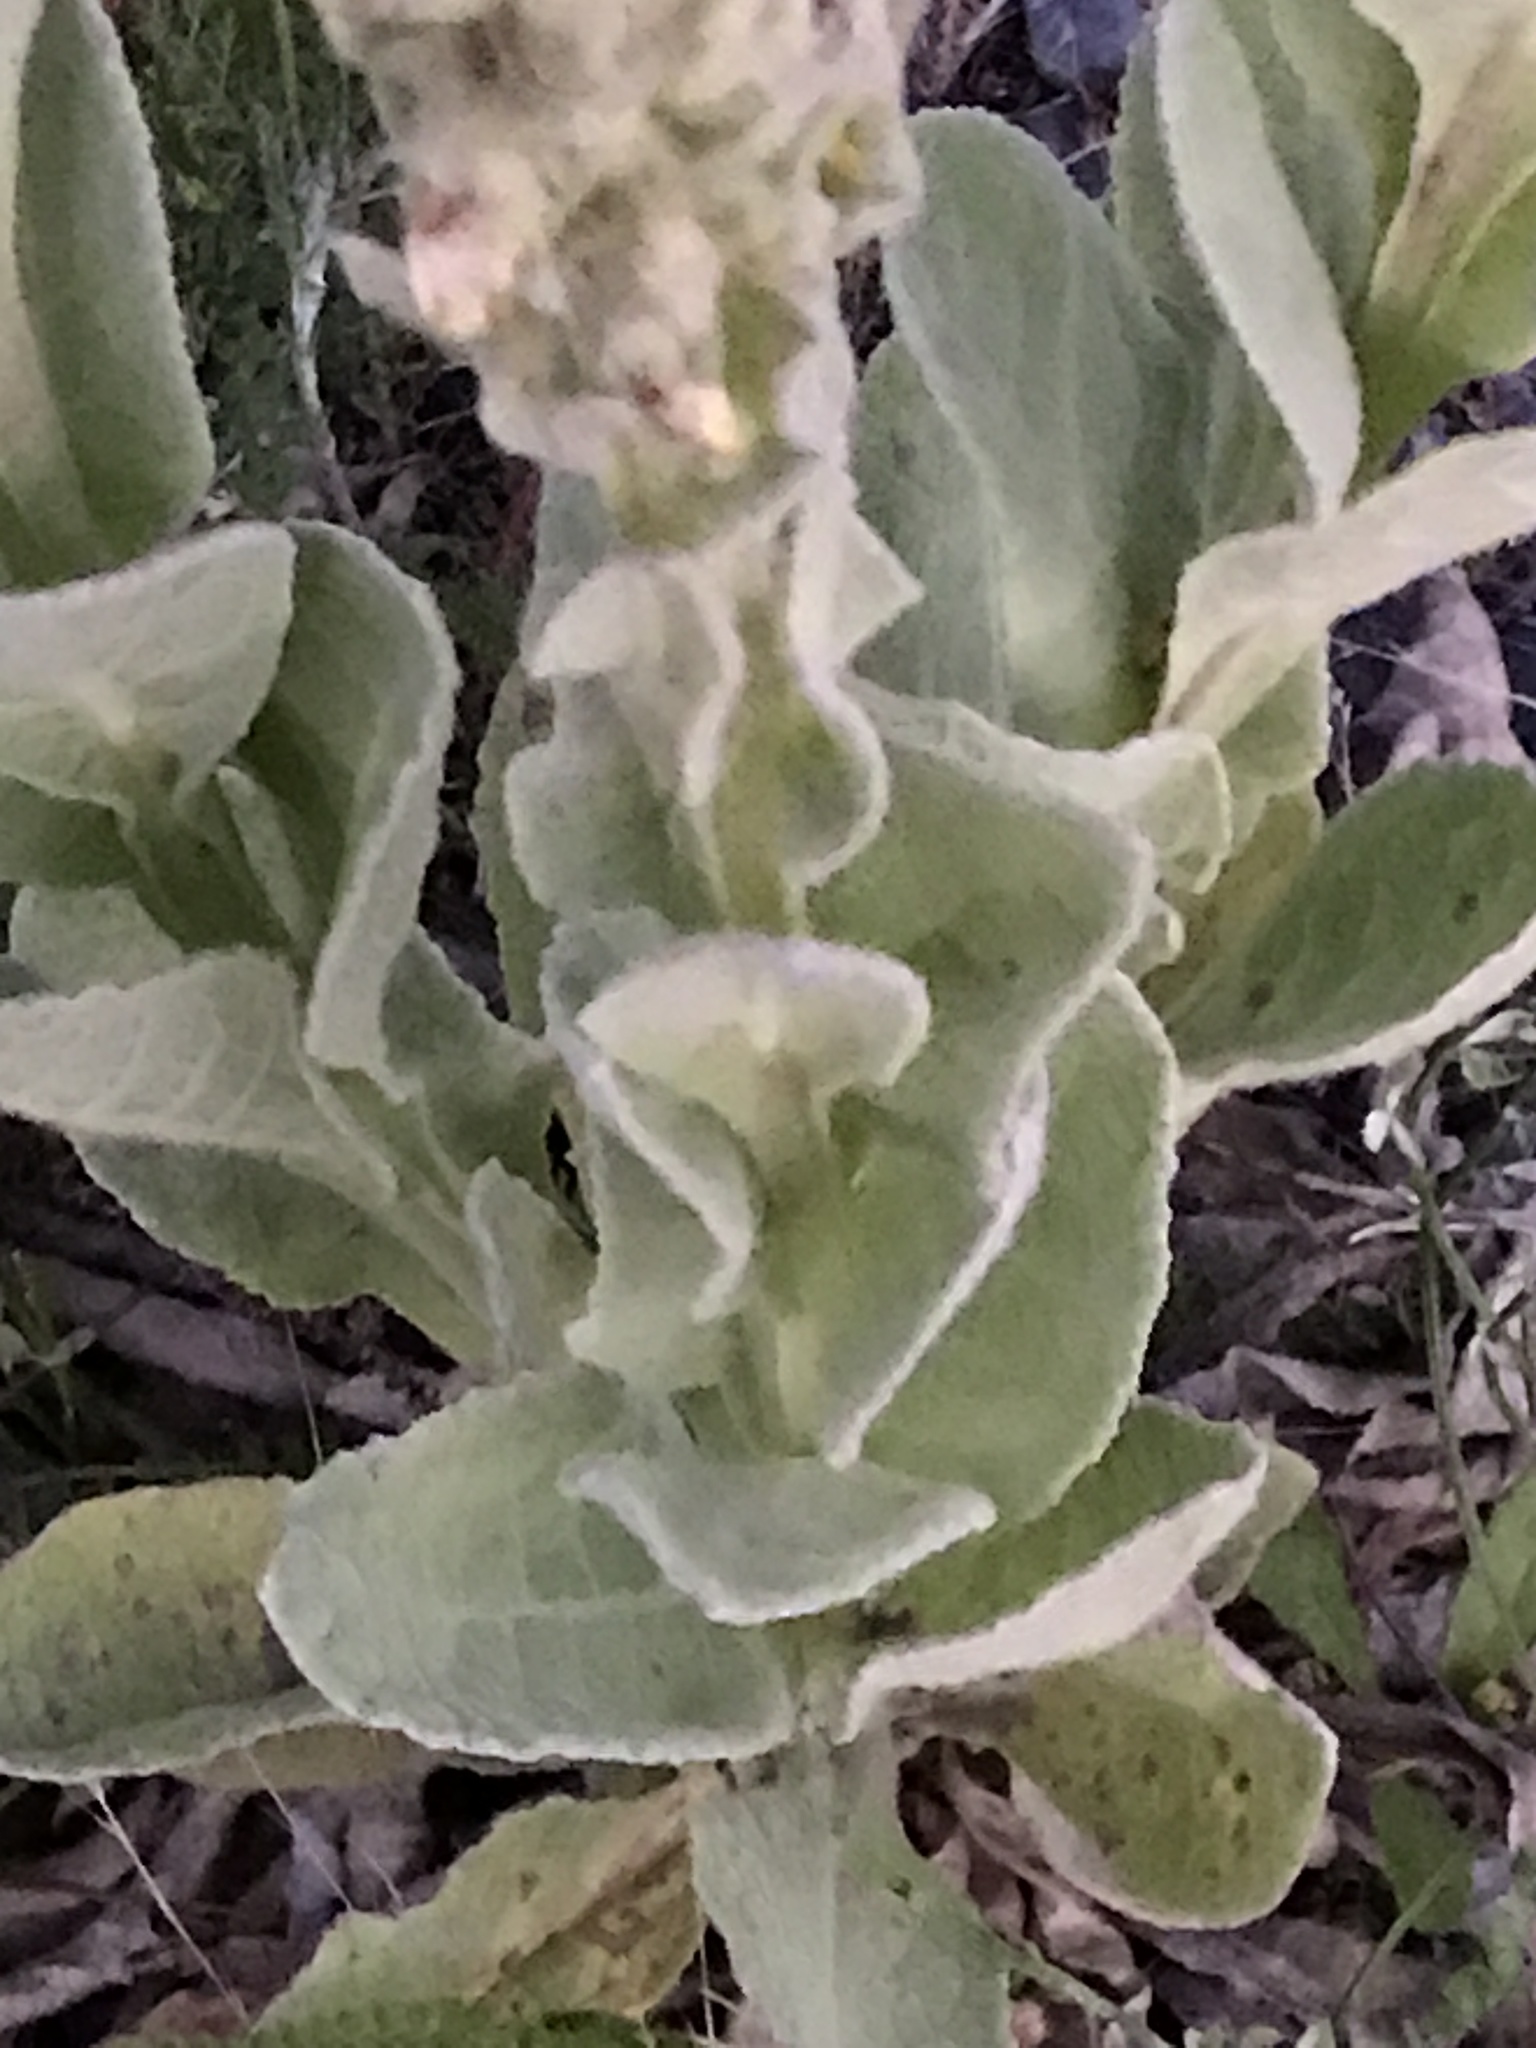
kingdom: Plantae
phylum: Tracheophyta
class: Magnoliopsida
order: Lamiales
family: Scrophulariaceae
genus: Verbascum
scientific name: Verbascum thapsus
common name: Common mullein
